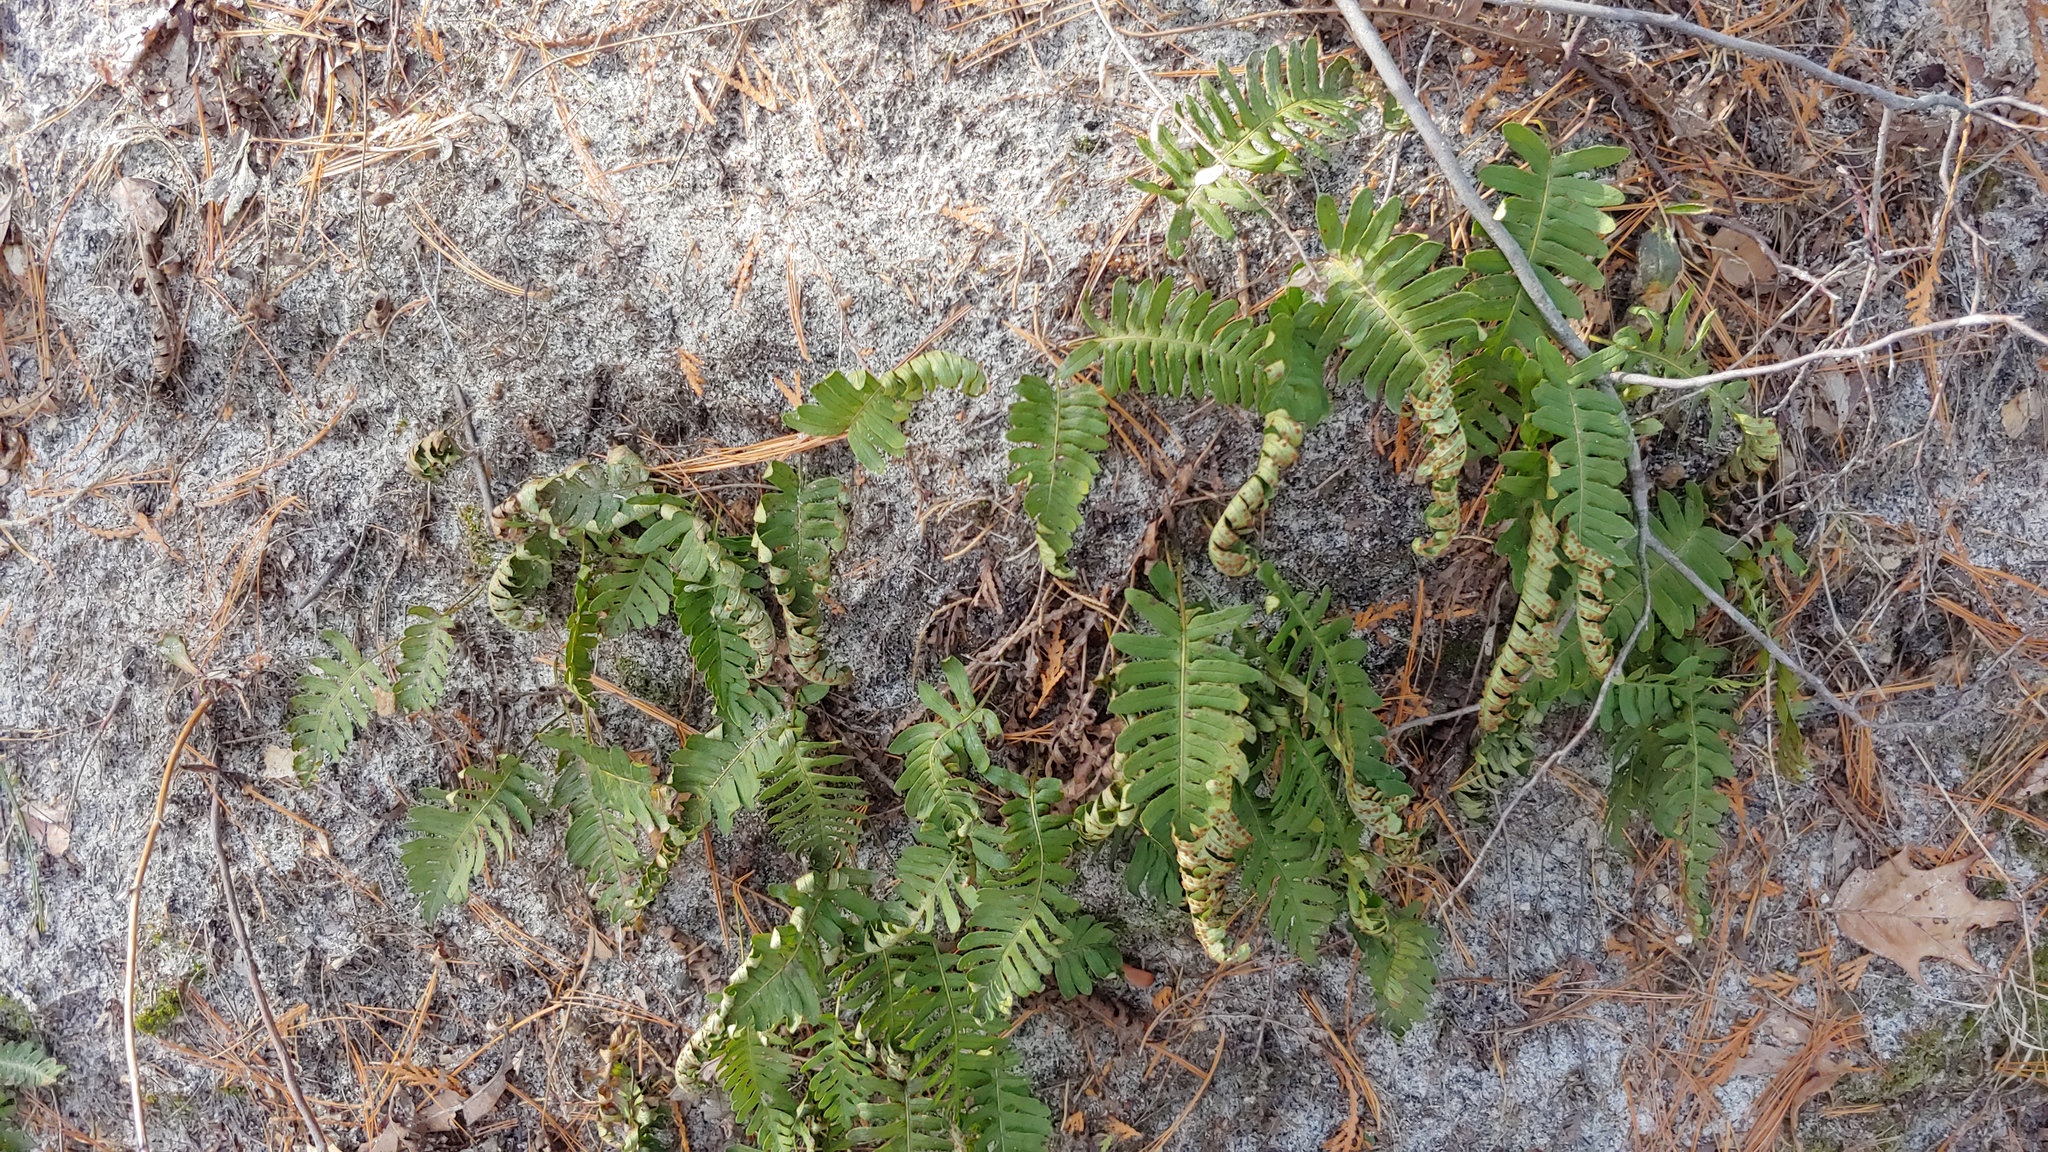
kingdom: Plantae
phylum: Tracheophyta
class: Polypodiopsida
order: Polypodiales
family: Polypodiaceae
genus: Polypodium
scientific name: Polypodium virginianum
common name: American wall fern
